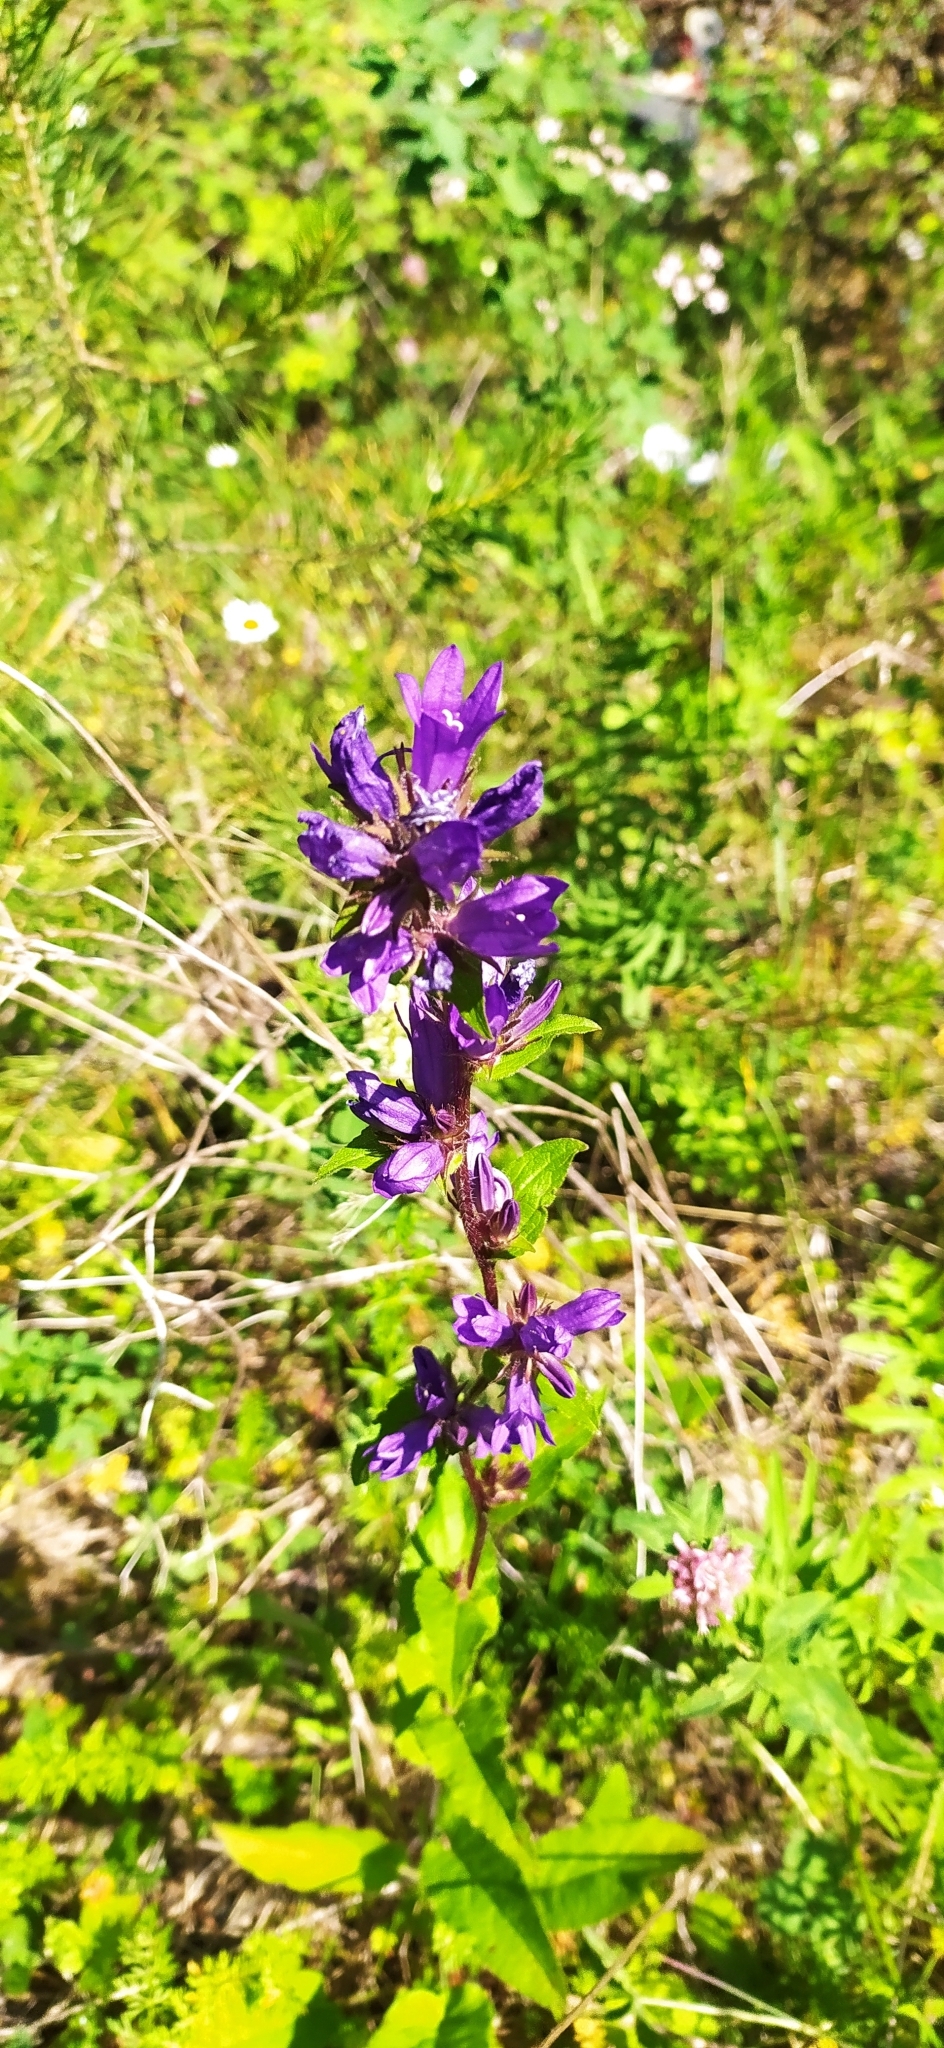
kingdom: Plantae
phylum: Tracheophyta
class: Magnoliopsida
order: Asterales
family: Campanulaceae
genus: Campanula
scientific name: Campanula glomerata
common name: Clustered bellflower
